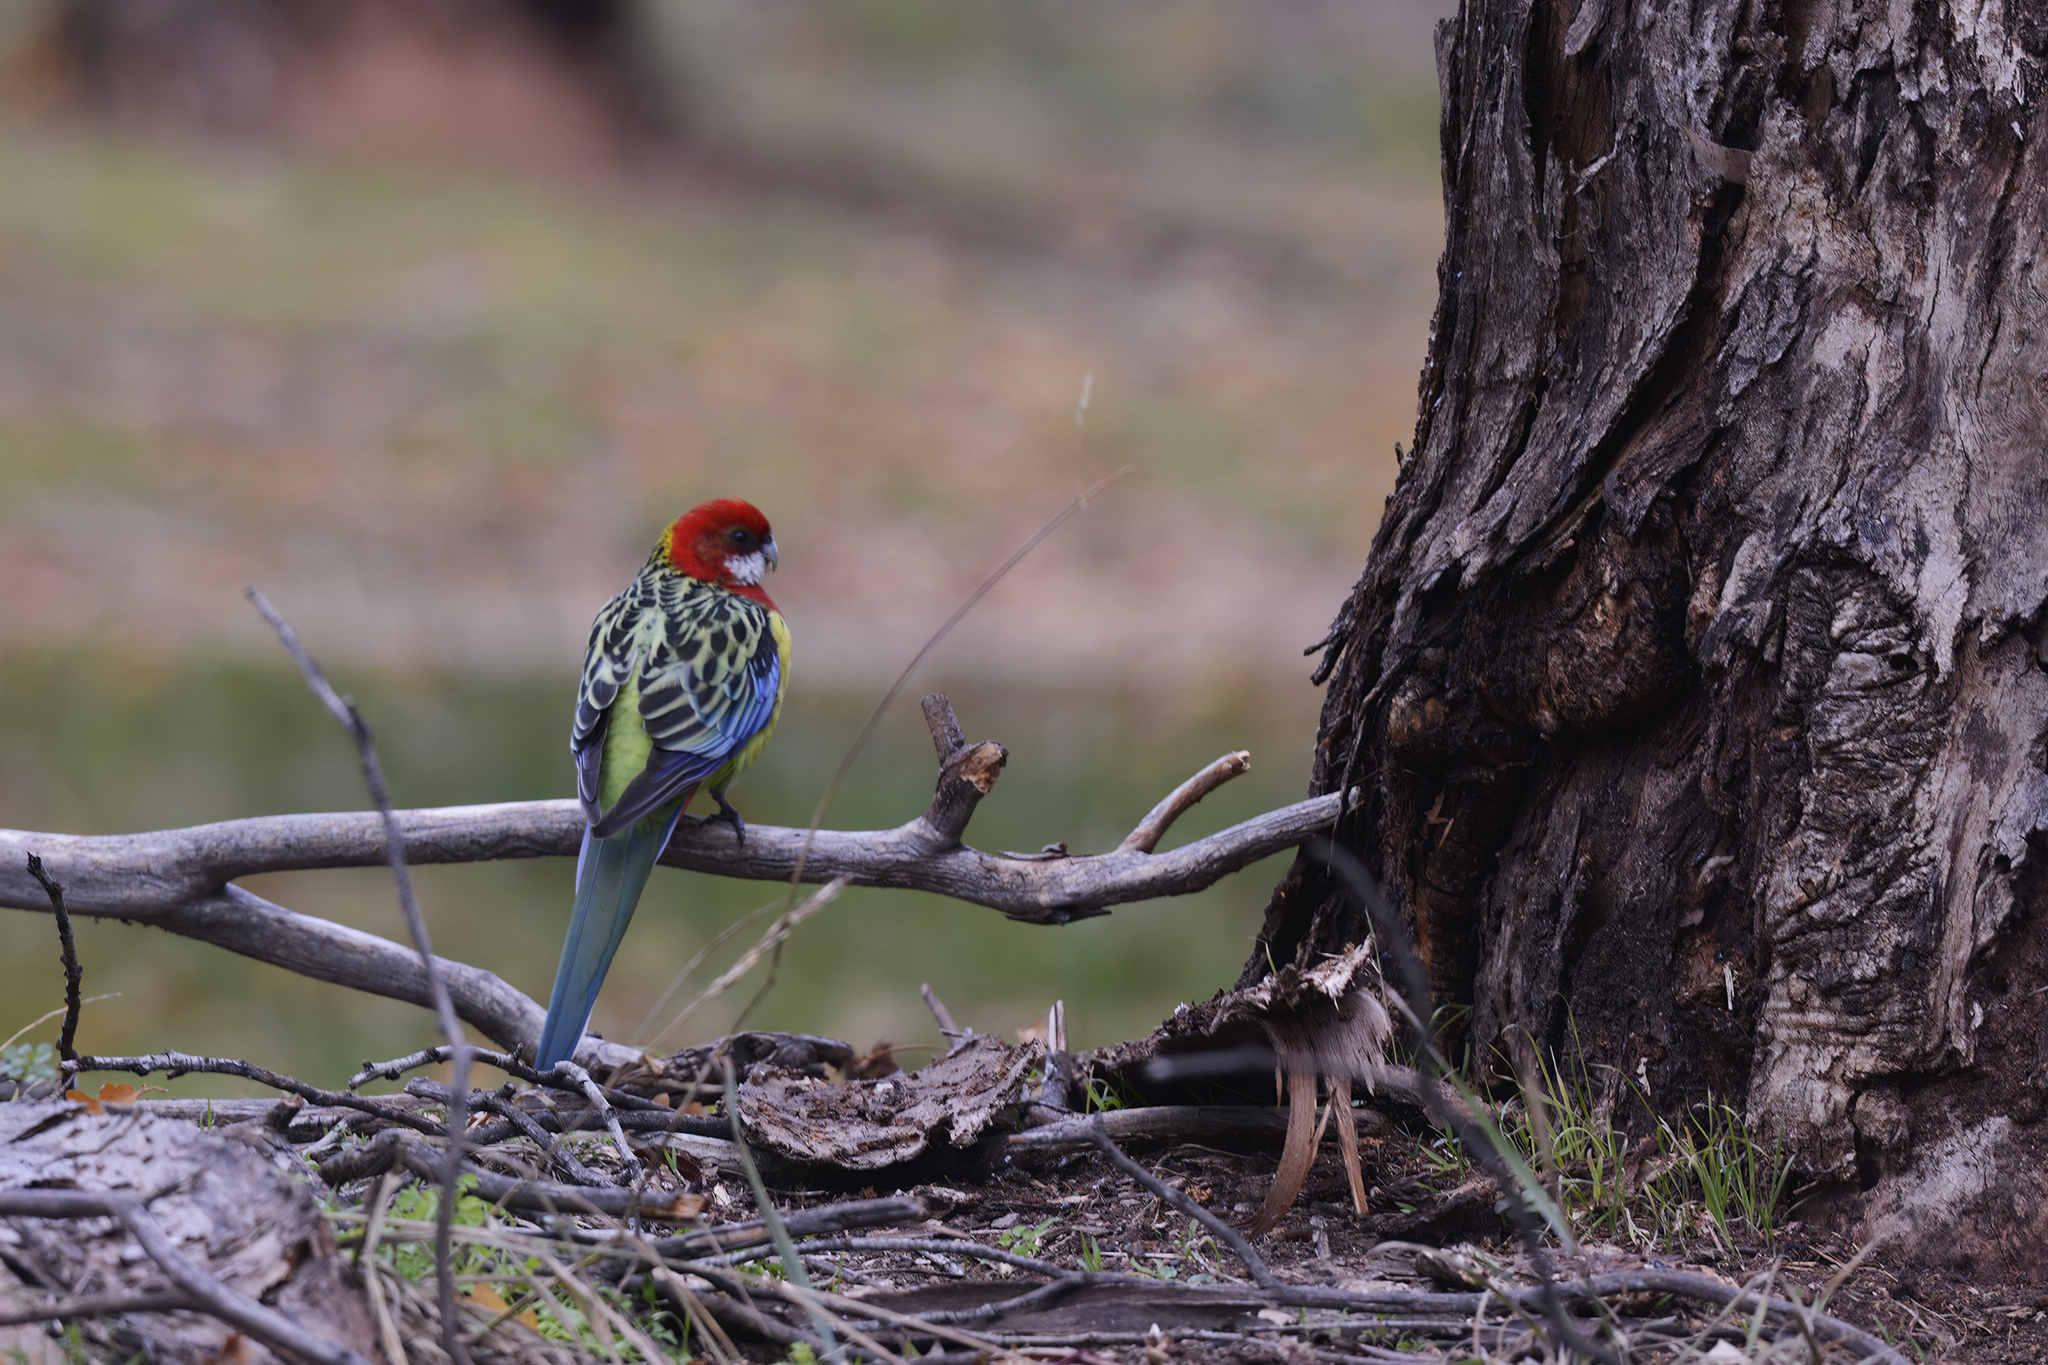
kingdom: Animalia
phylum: Chordata
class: Aves
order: Psittaciformes
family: Psittacidae
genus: Platycercus
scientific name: Platycercus eximius
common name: Eastern rosella
